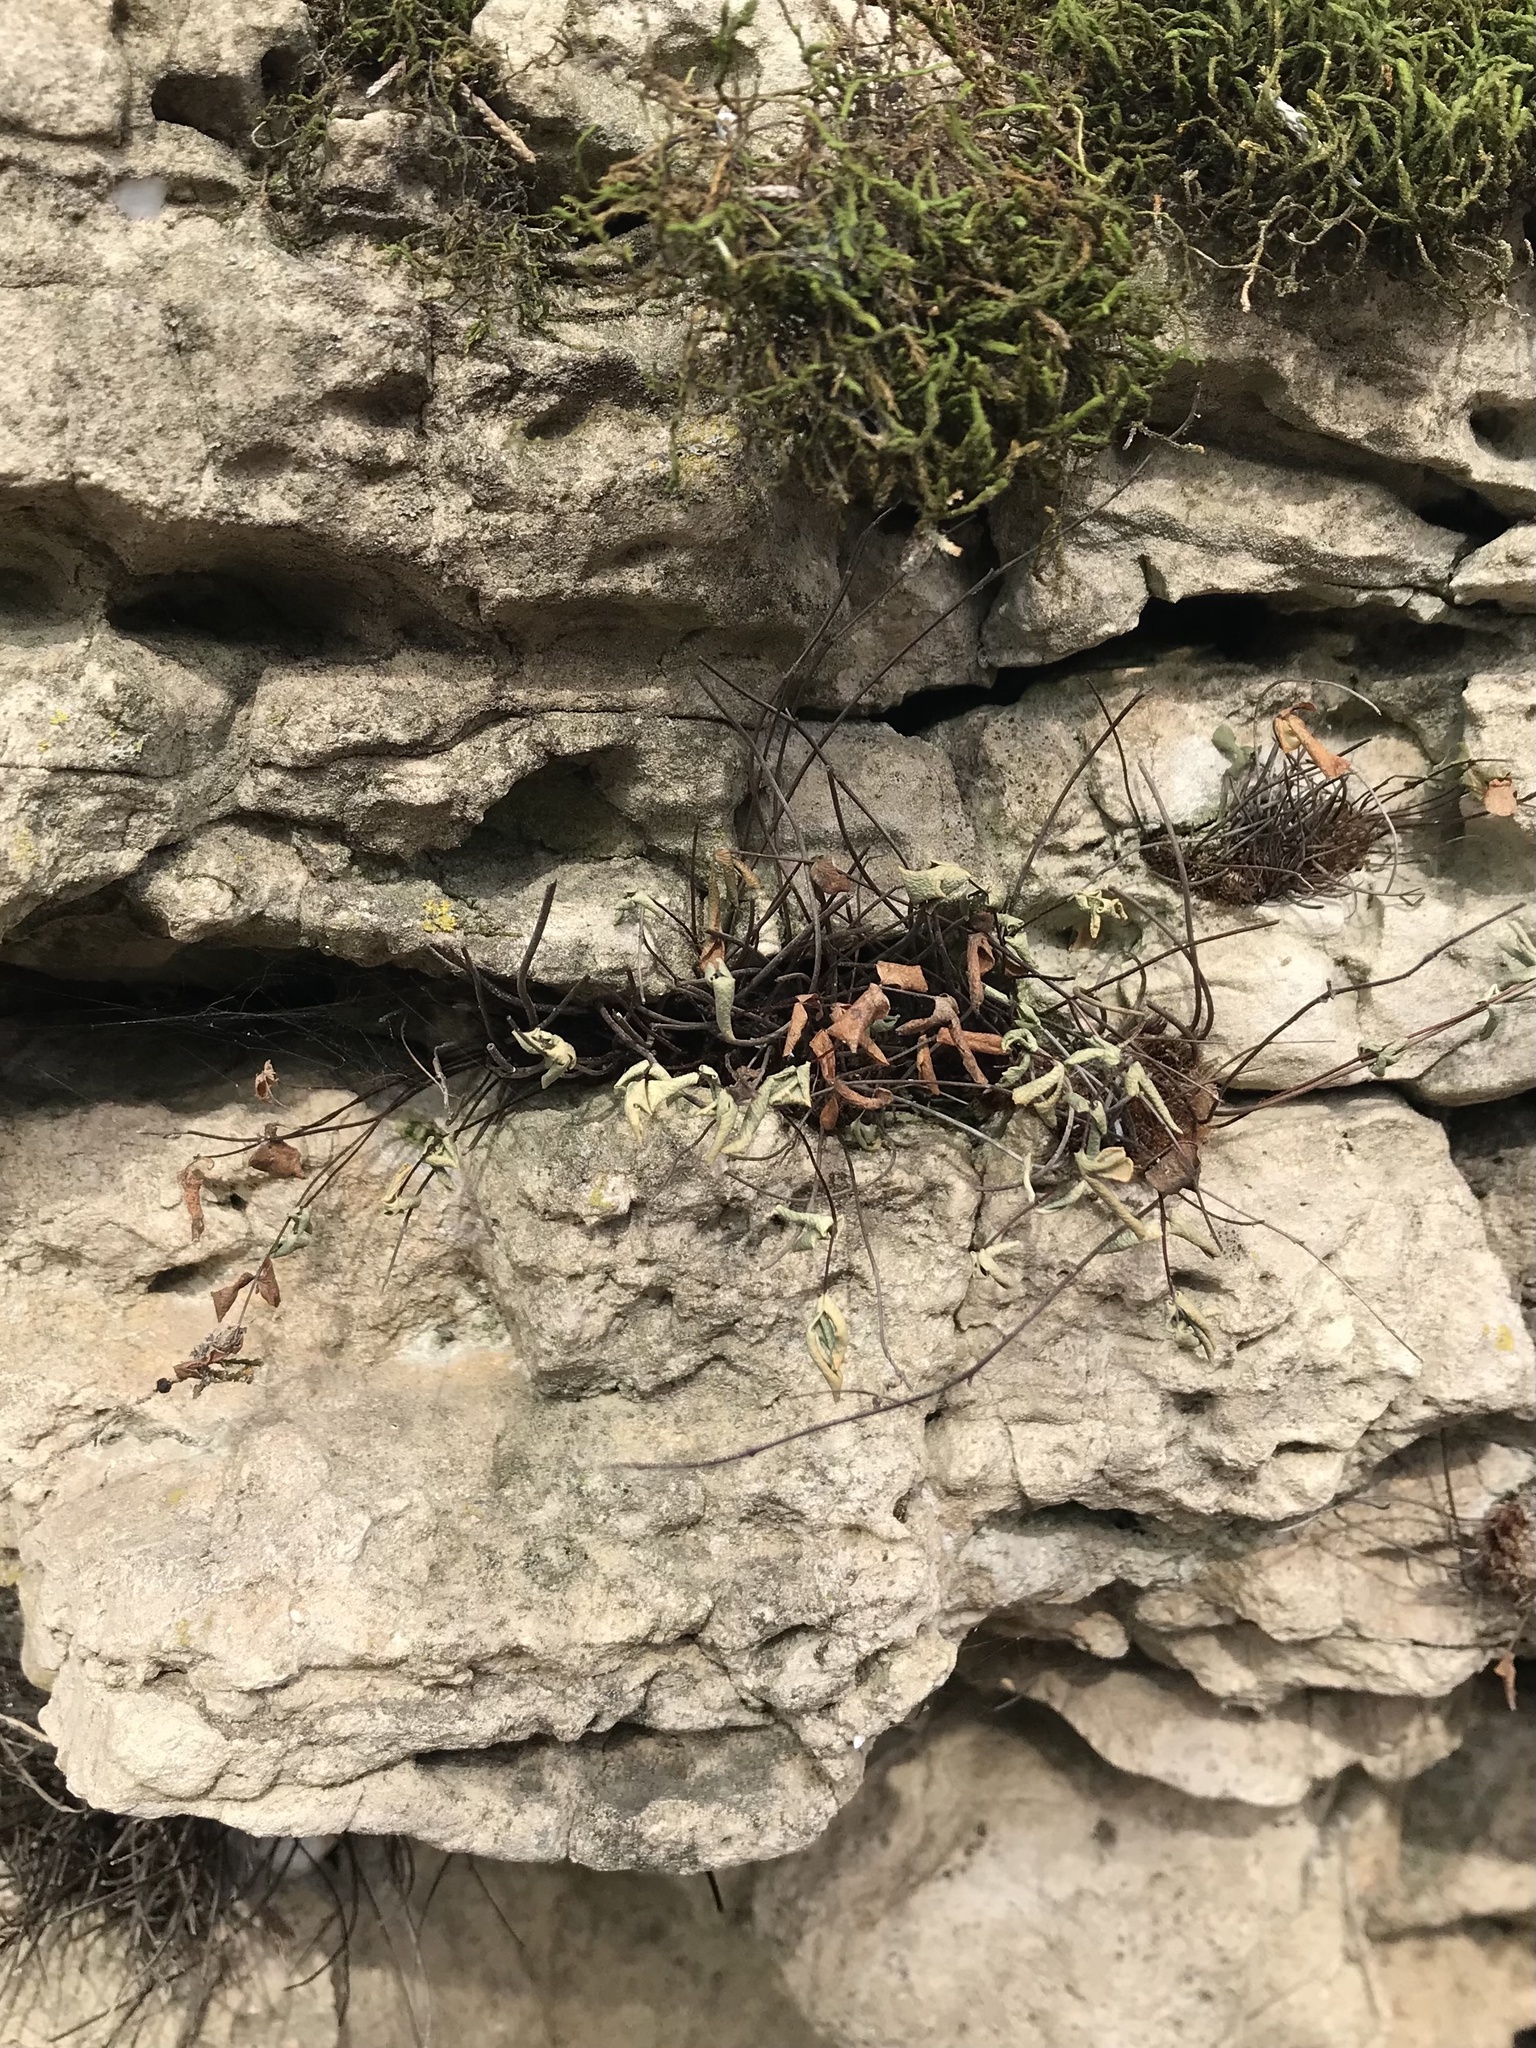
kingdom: Plantae
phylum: Tracheophyta
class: Polypodiopsida
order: Polypodiales
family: Pteridaceae
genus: Pellaea
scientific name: Pellaea glabella
